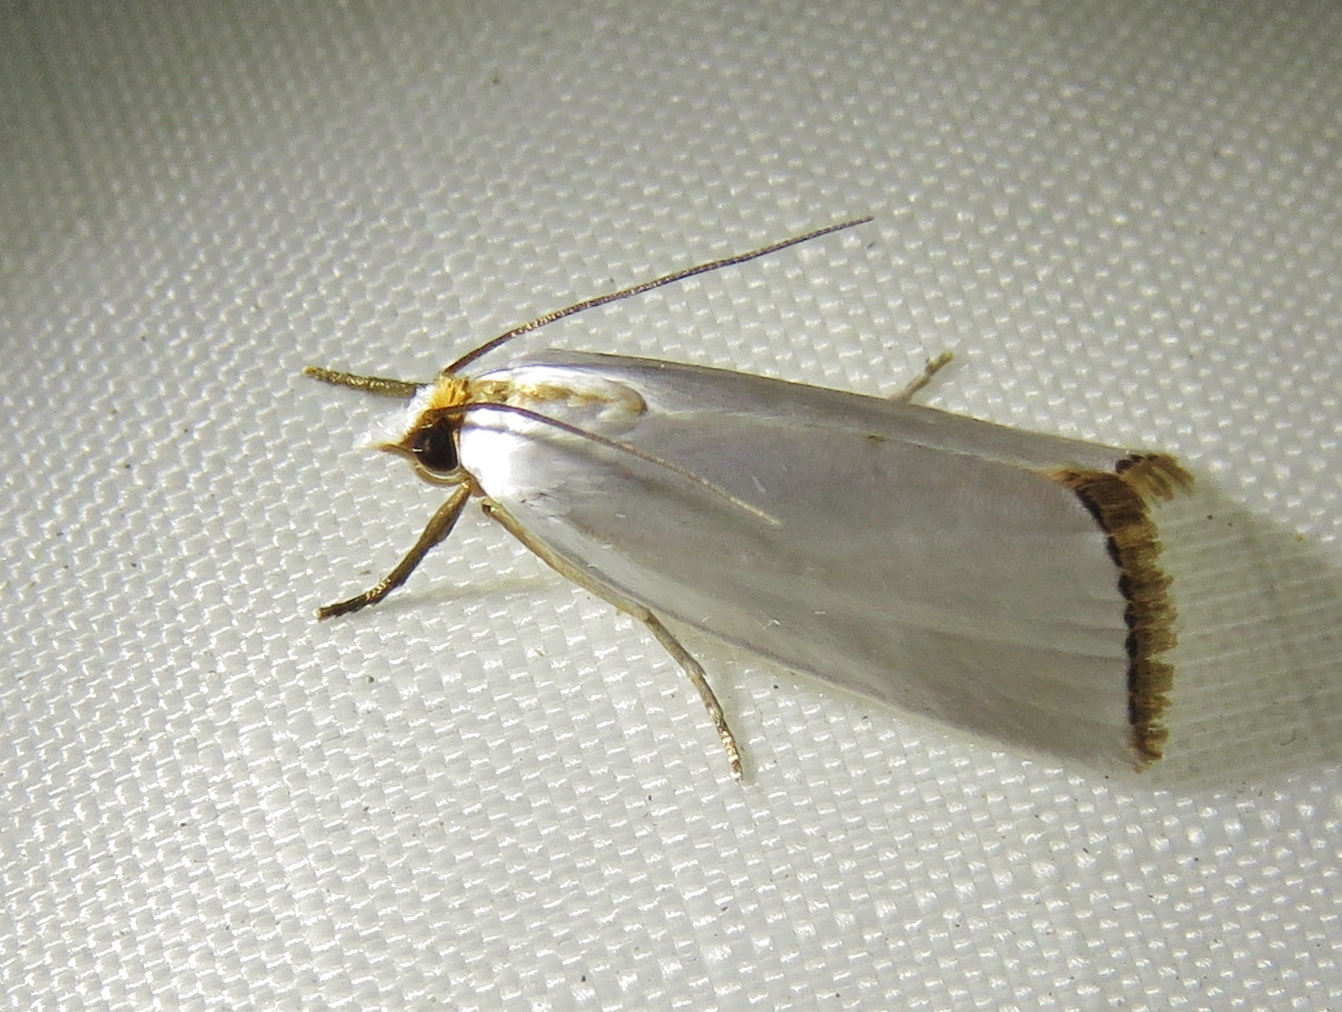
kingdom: Animalia
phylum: Arthropoda
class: Insecta
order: Lepidoptera
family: Crambidae
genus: Argyria
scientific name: Argyria nivalis
